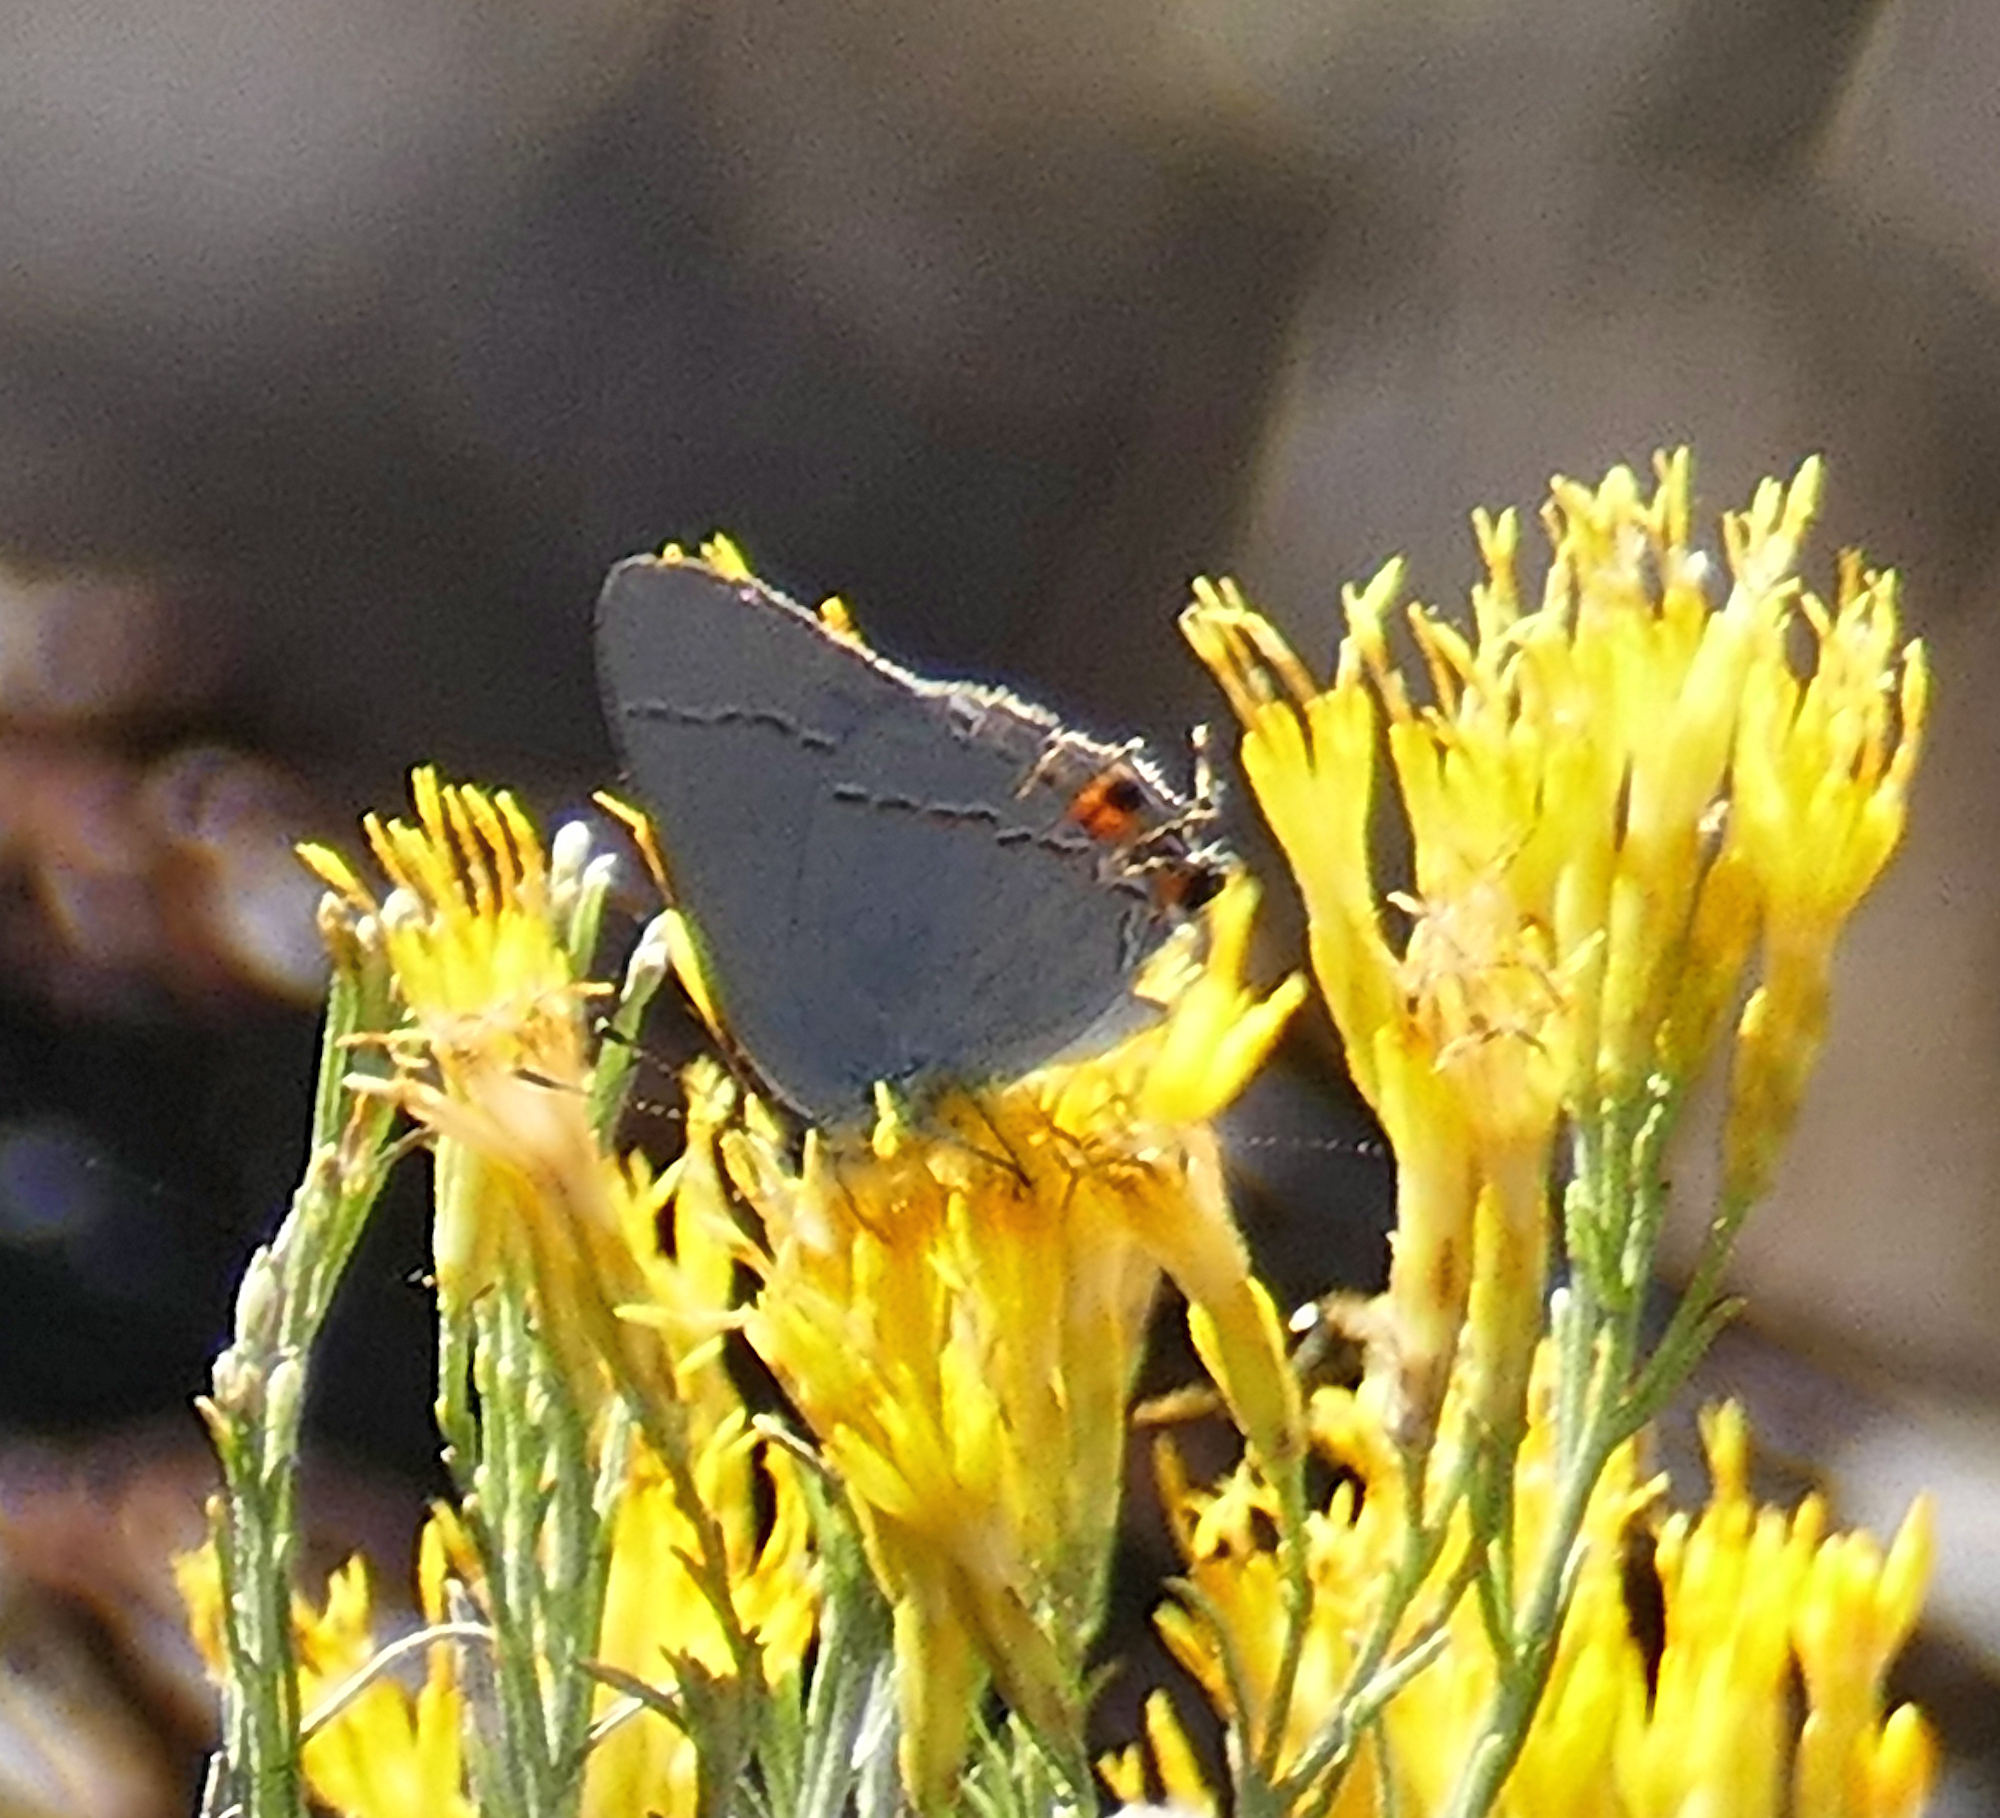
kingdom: Animalia
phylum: Arthropoda
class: Insecta
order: Lepidoptera
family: Lycaenidae
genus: Strymon
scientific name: Strymon melinus
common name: Gray hairstreak
